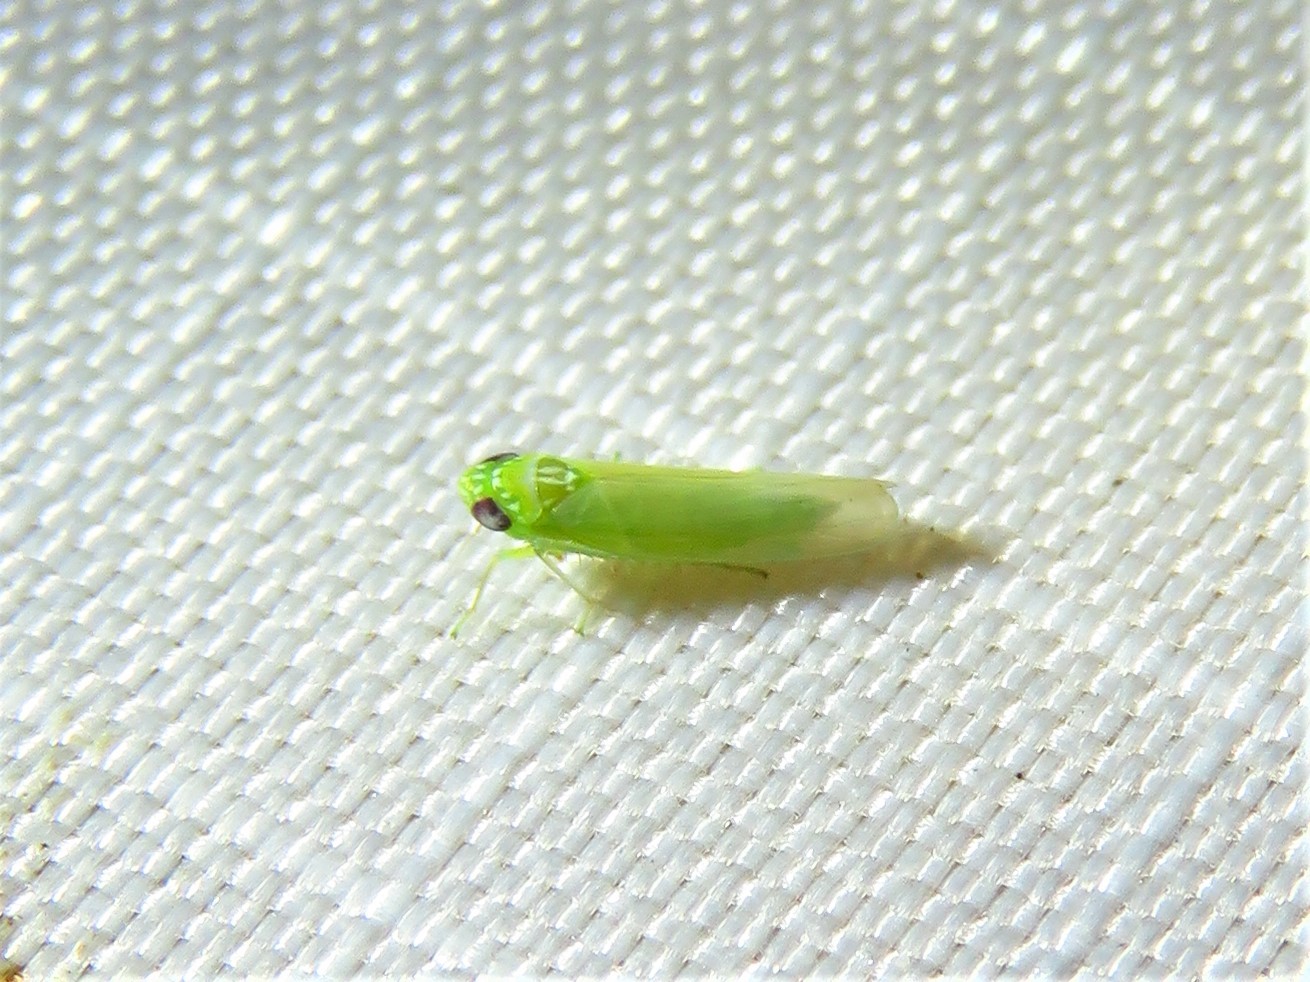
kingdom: Animalia
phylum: Arthropoda
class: Insecta
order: Hemiptera
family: Cicadellidae
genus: Empoasca
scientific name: Empoasca fabae
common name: Potato leafhopper
